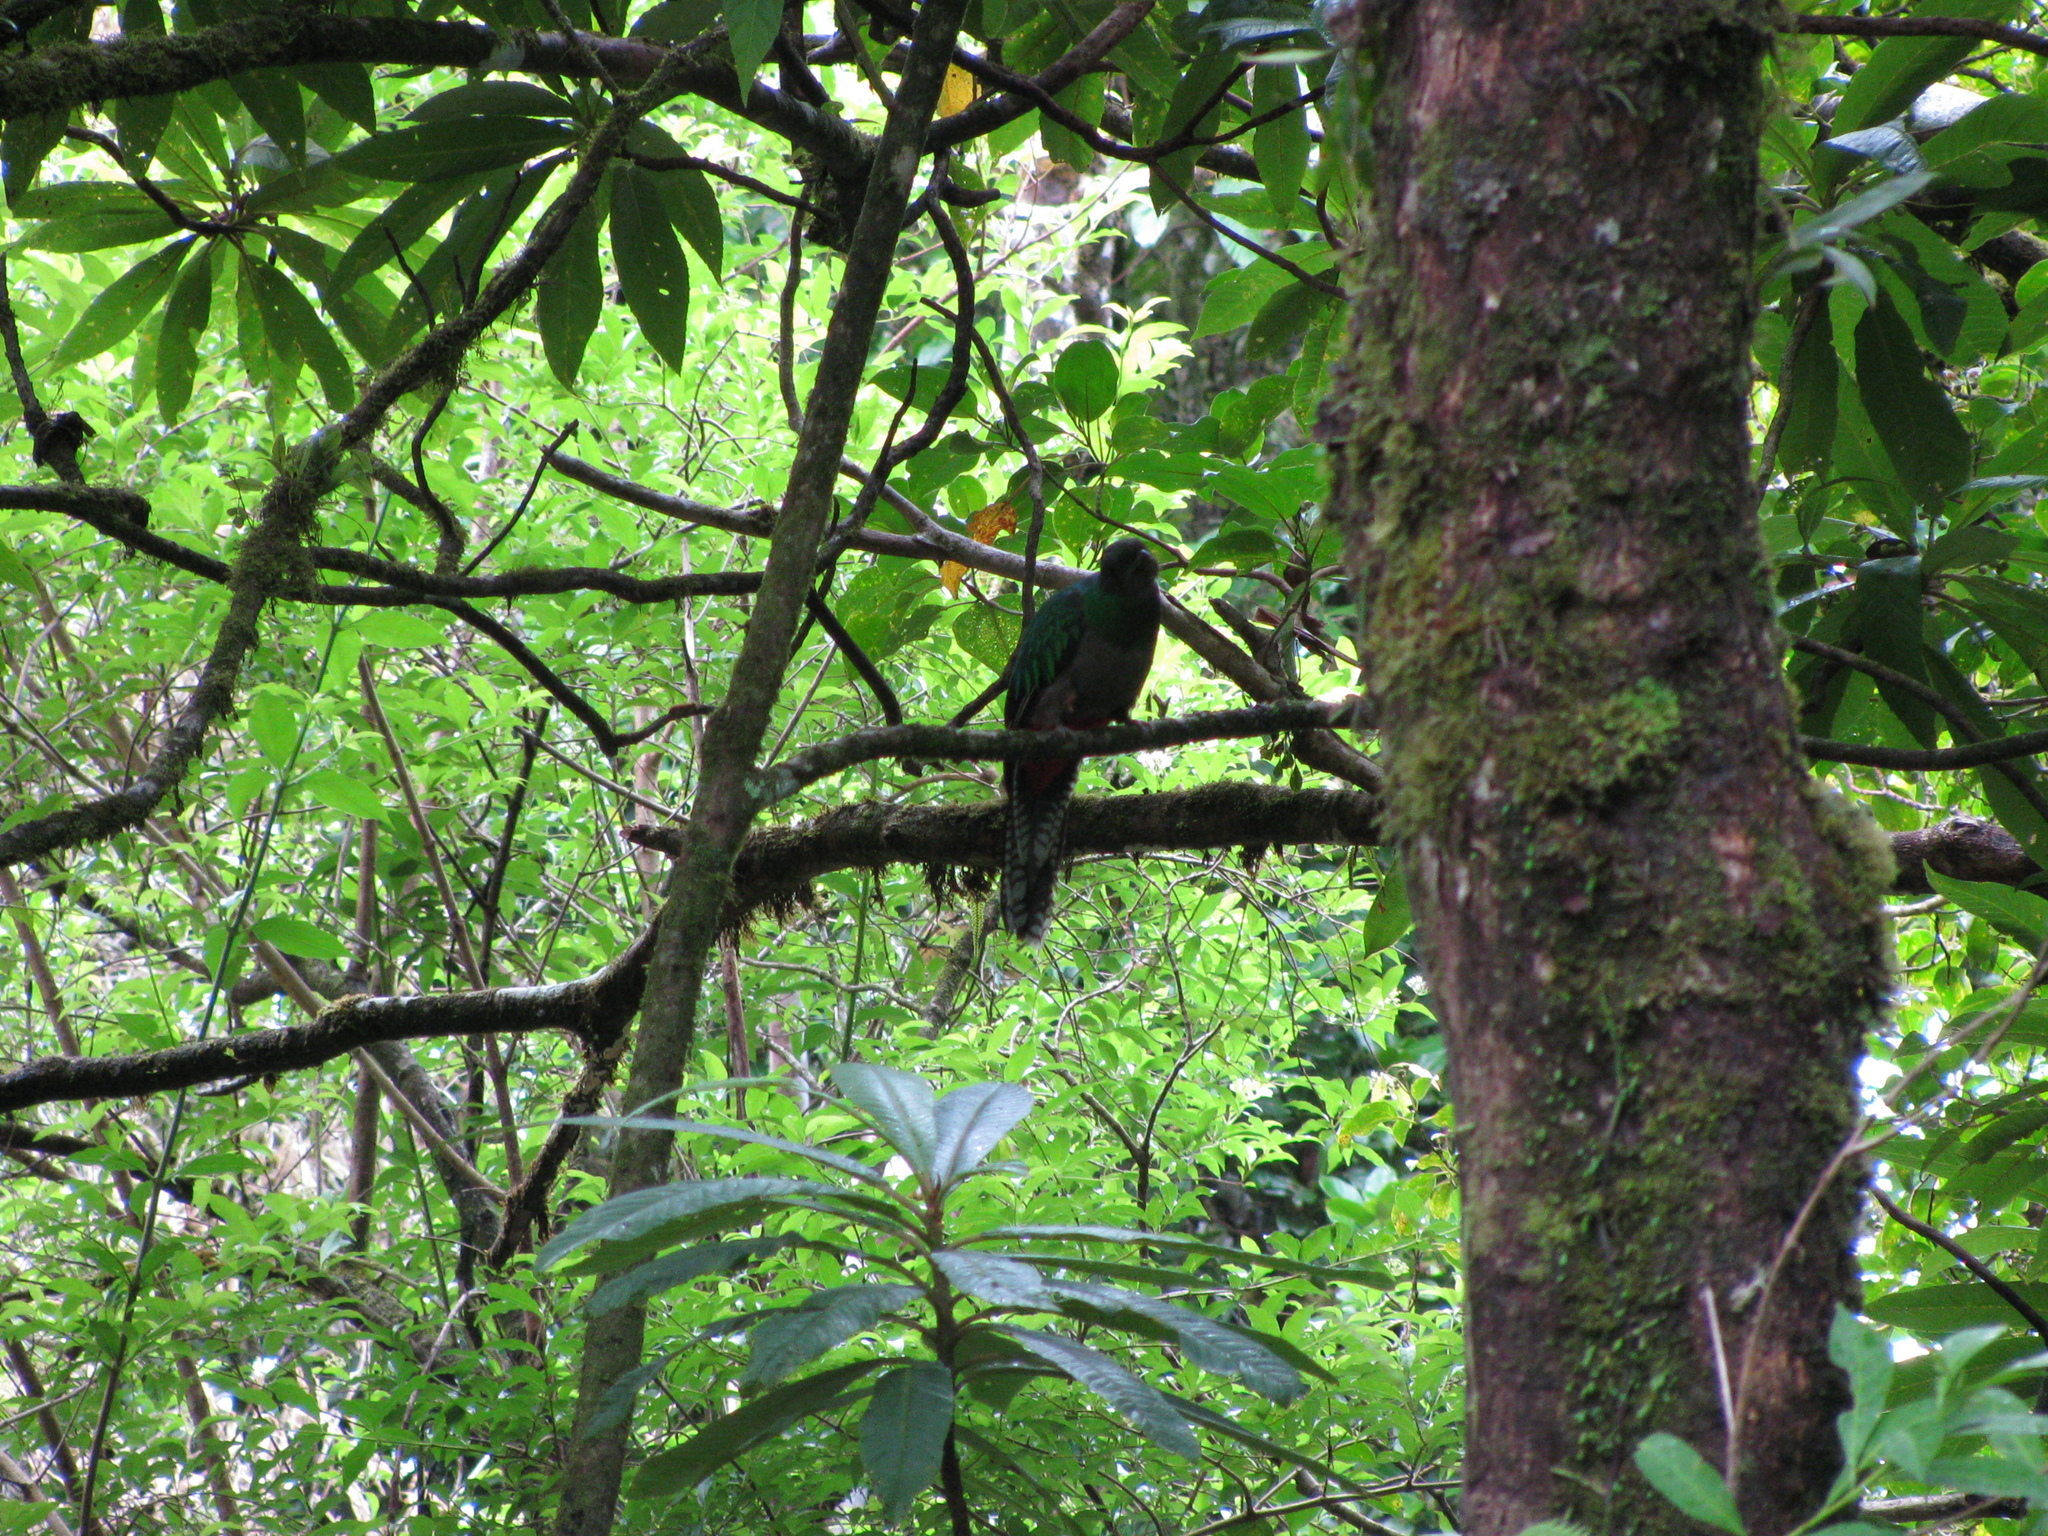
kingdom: Animalia
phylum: Chordata
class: Aves
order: Trogoniformes
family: Trogonidae
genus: Pharomachrus
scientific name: Pharomachrus mocinno
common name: Resplendent quetzal
